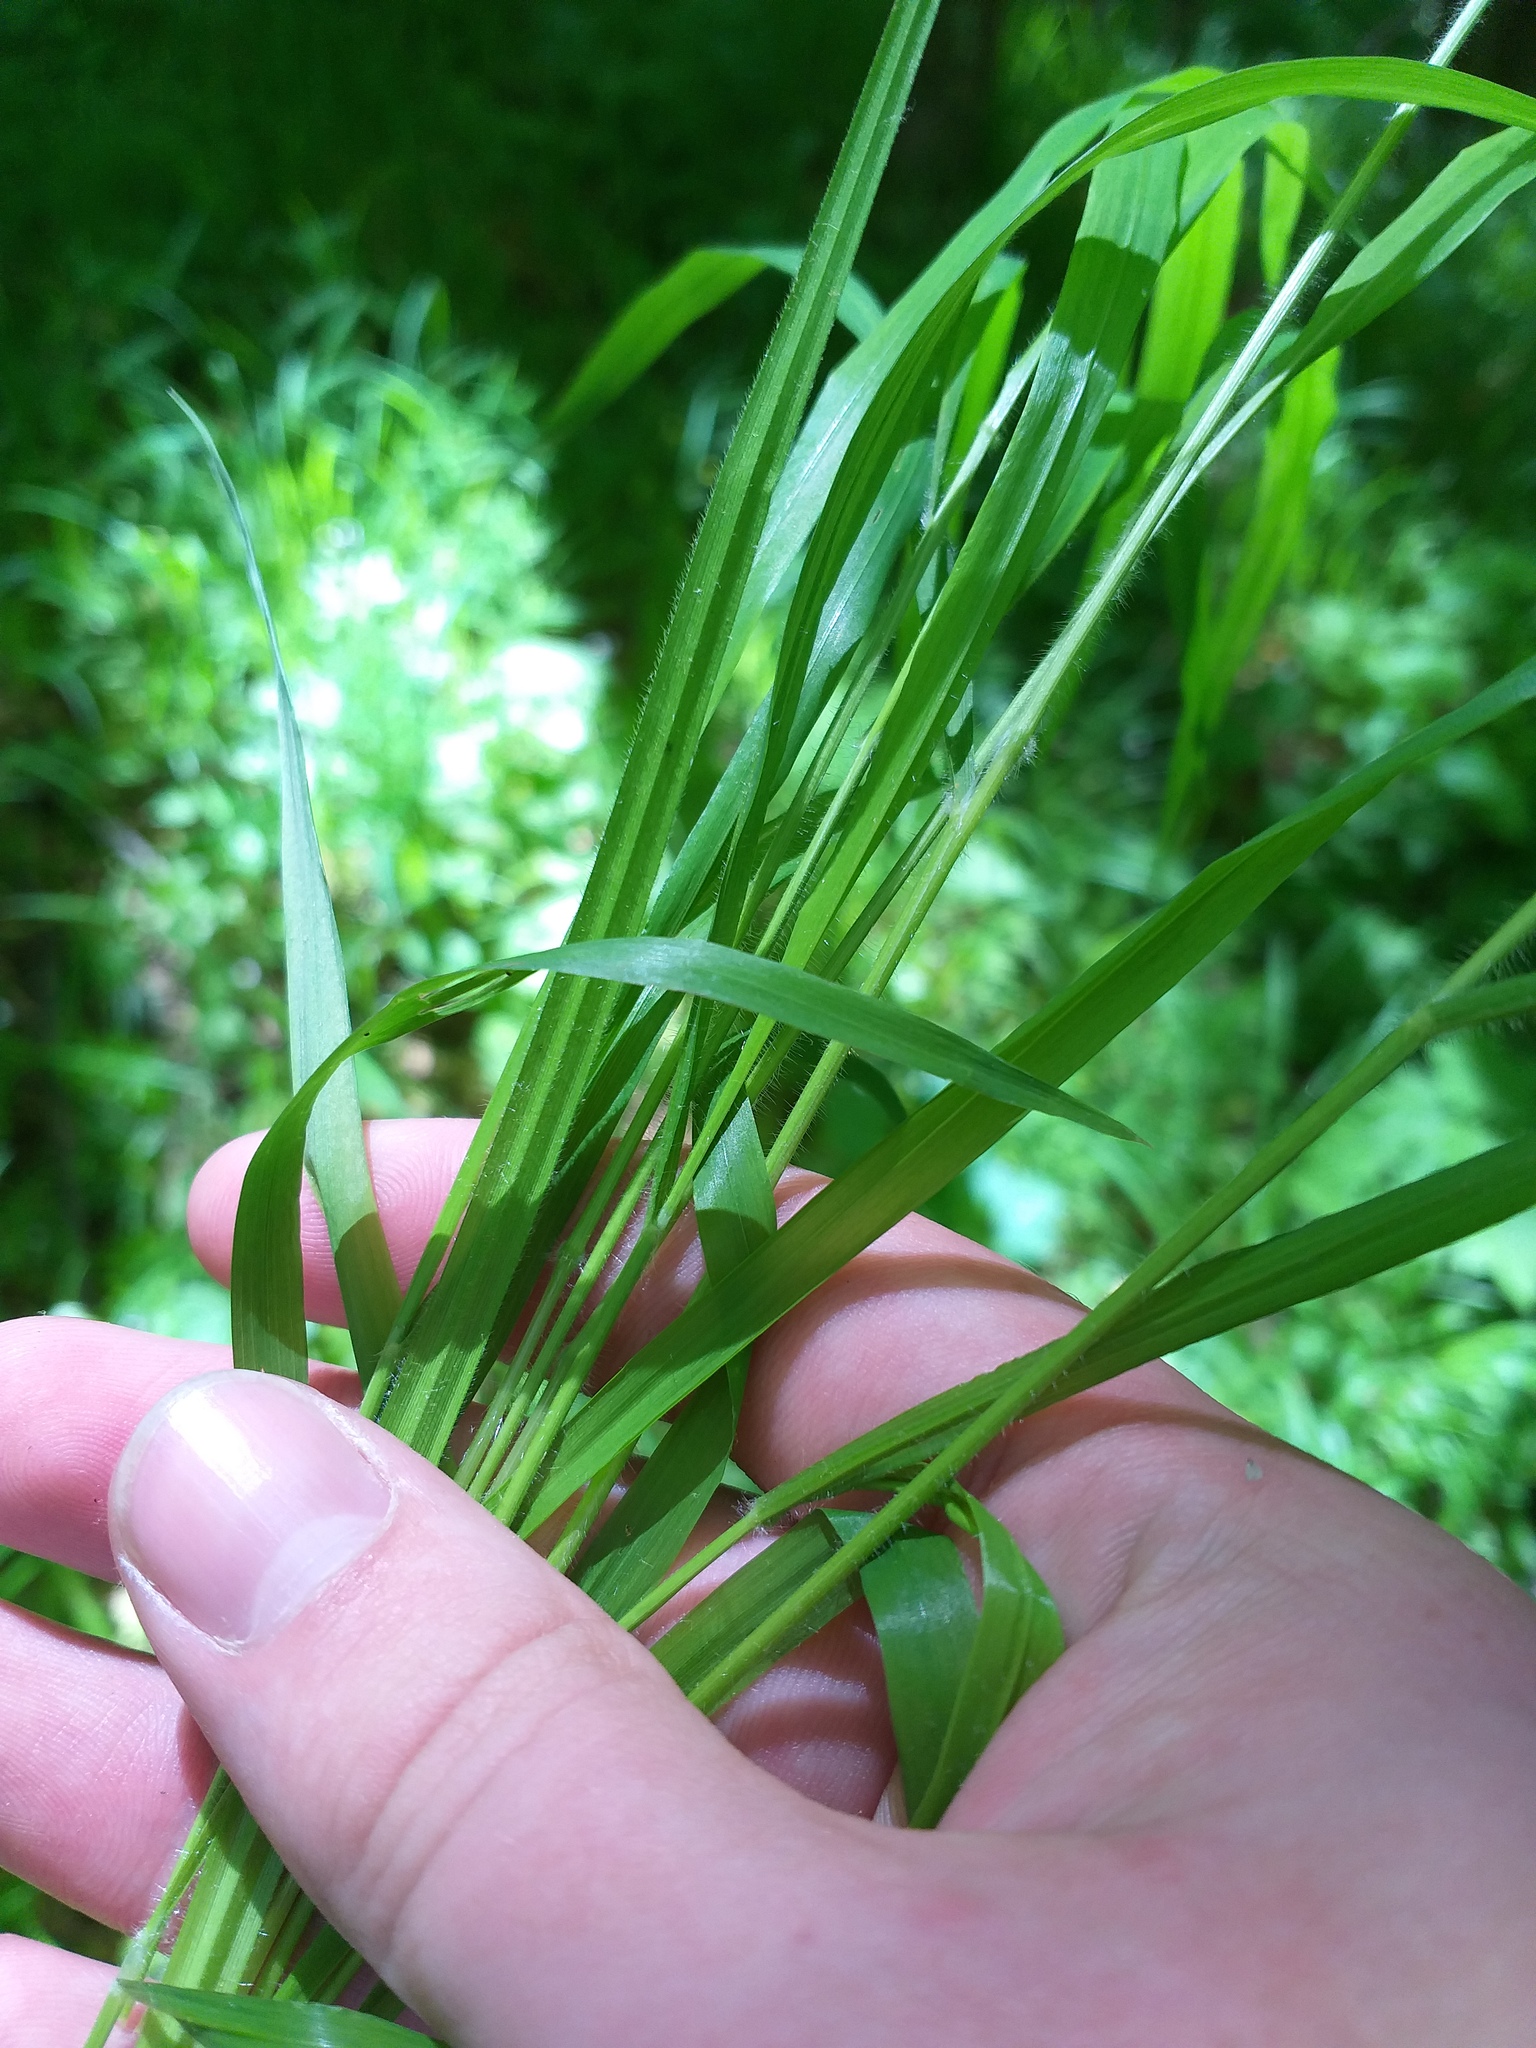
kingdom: Plantae
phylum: Tracheophyta
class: Liliopsida
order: Poales
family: Poaceae
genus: Brachypodium
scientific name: Brachypodium sylvaticum
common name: False-brome
